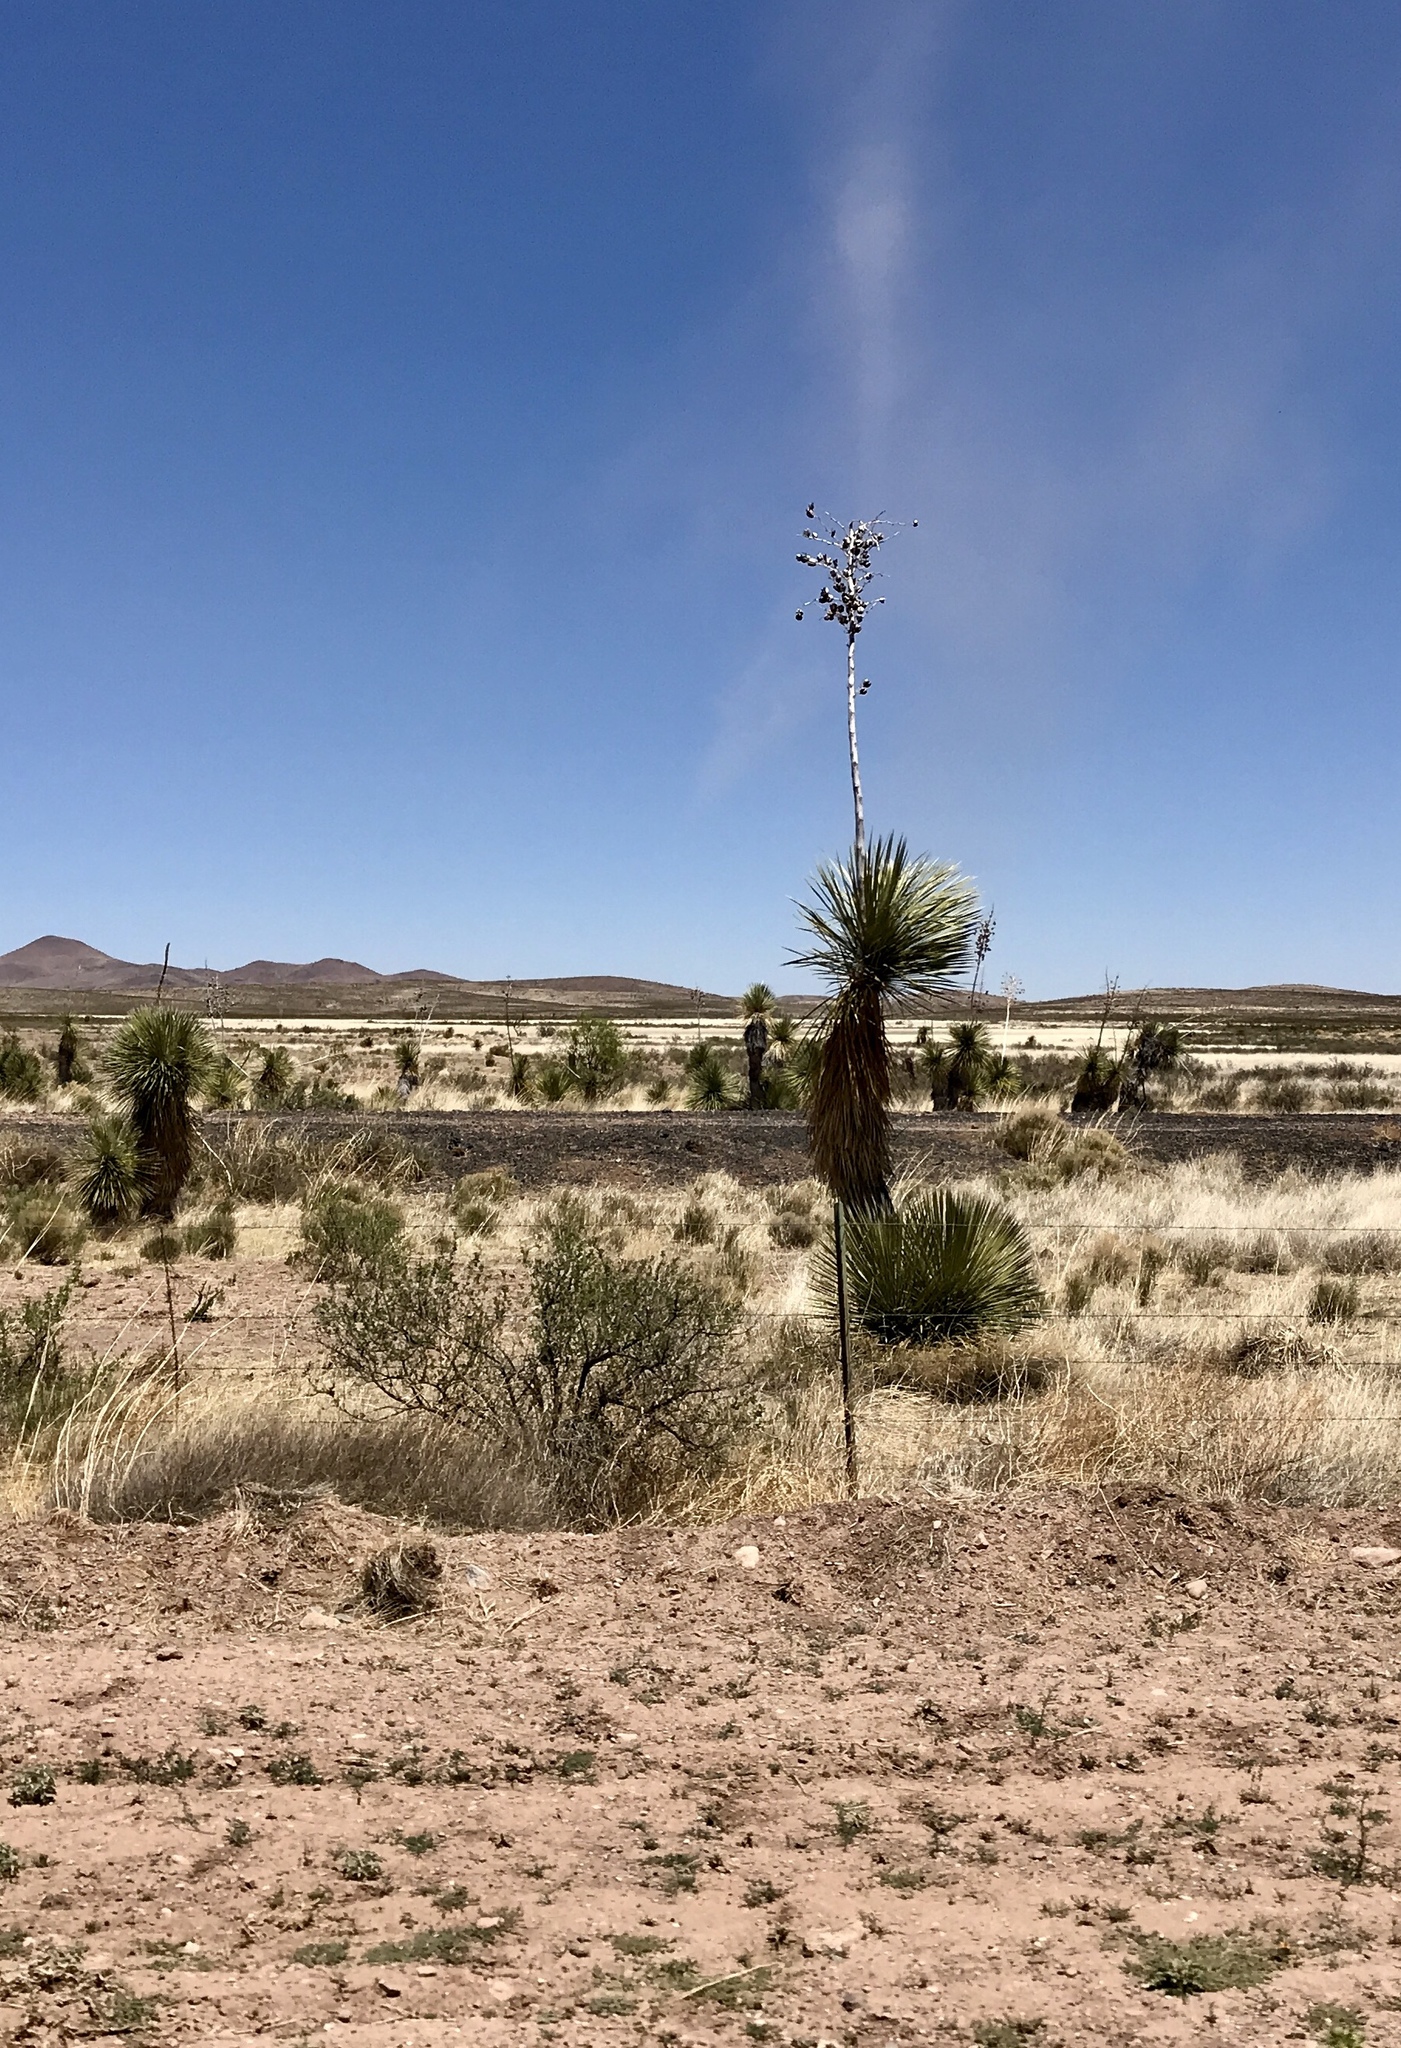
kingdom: Plantae
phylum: Tracheophyta
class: Liliopsida
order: Asparagales
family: Asparagaceae
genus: Yucca
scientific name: Yucca elata
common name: Palmella
